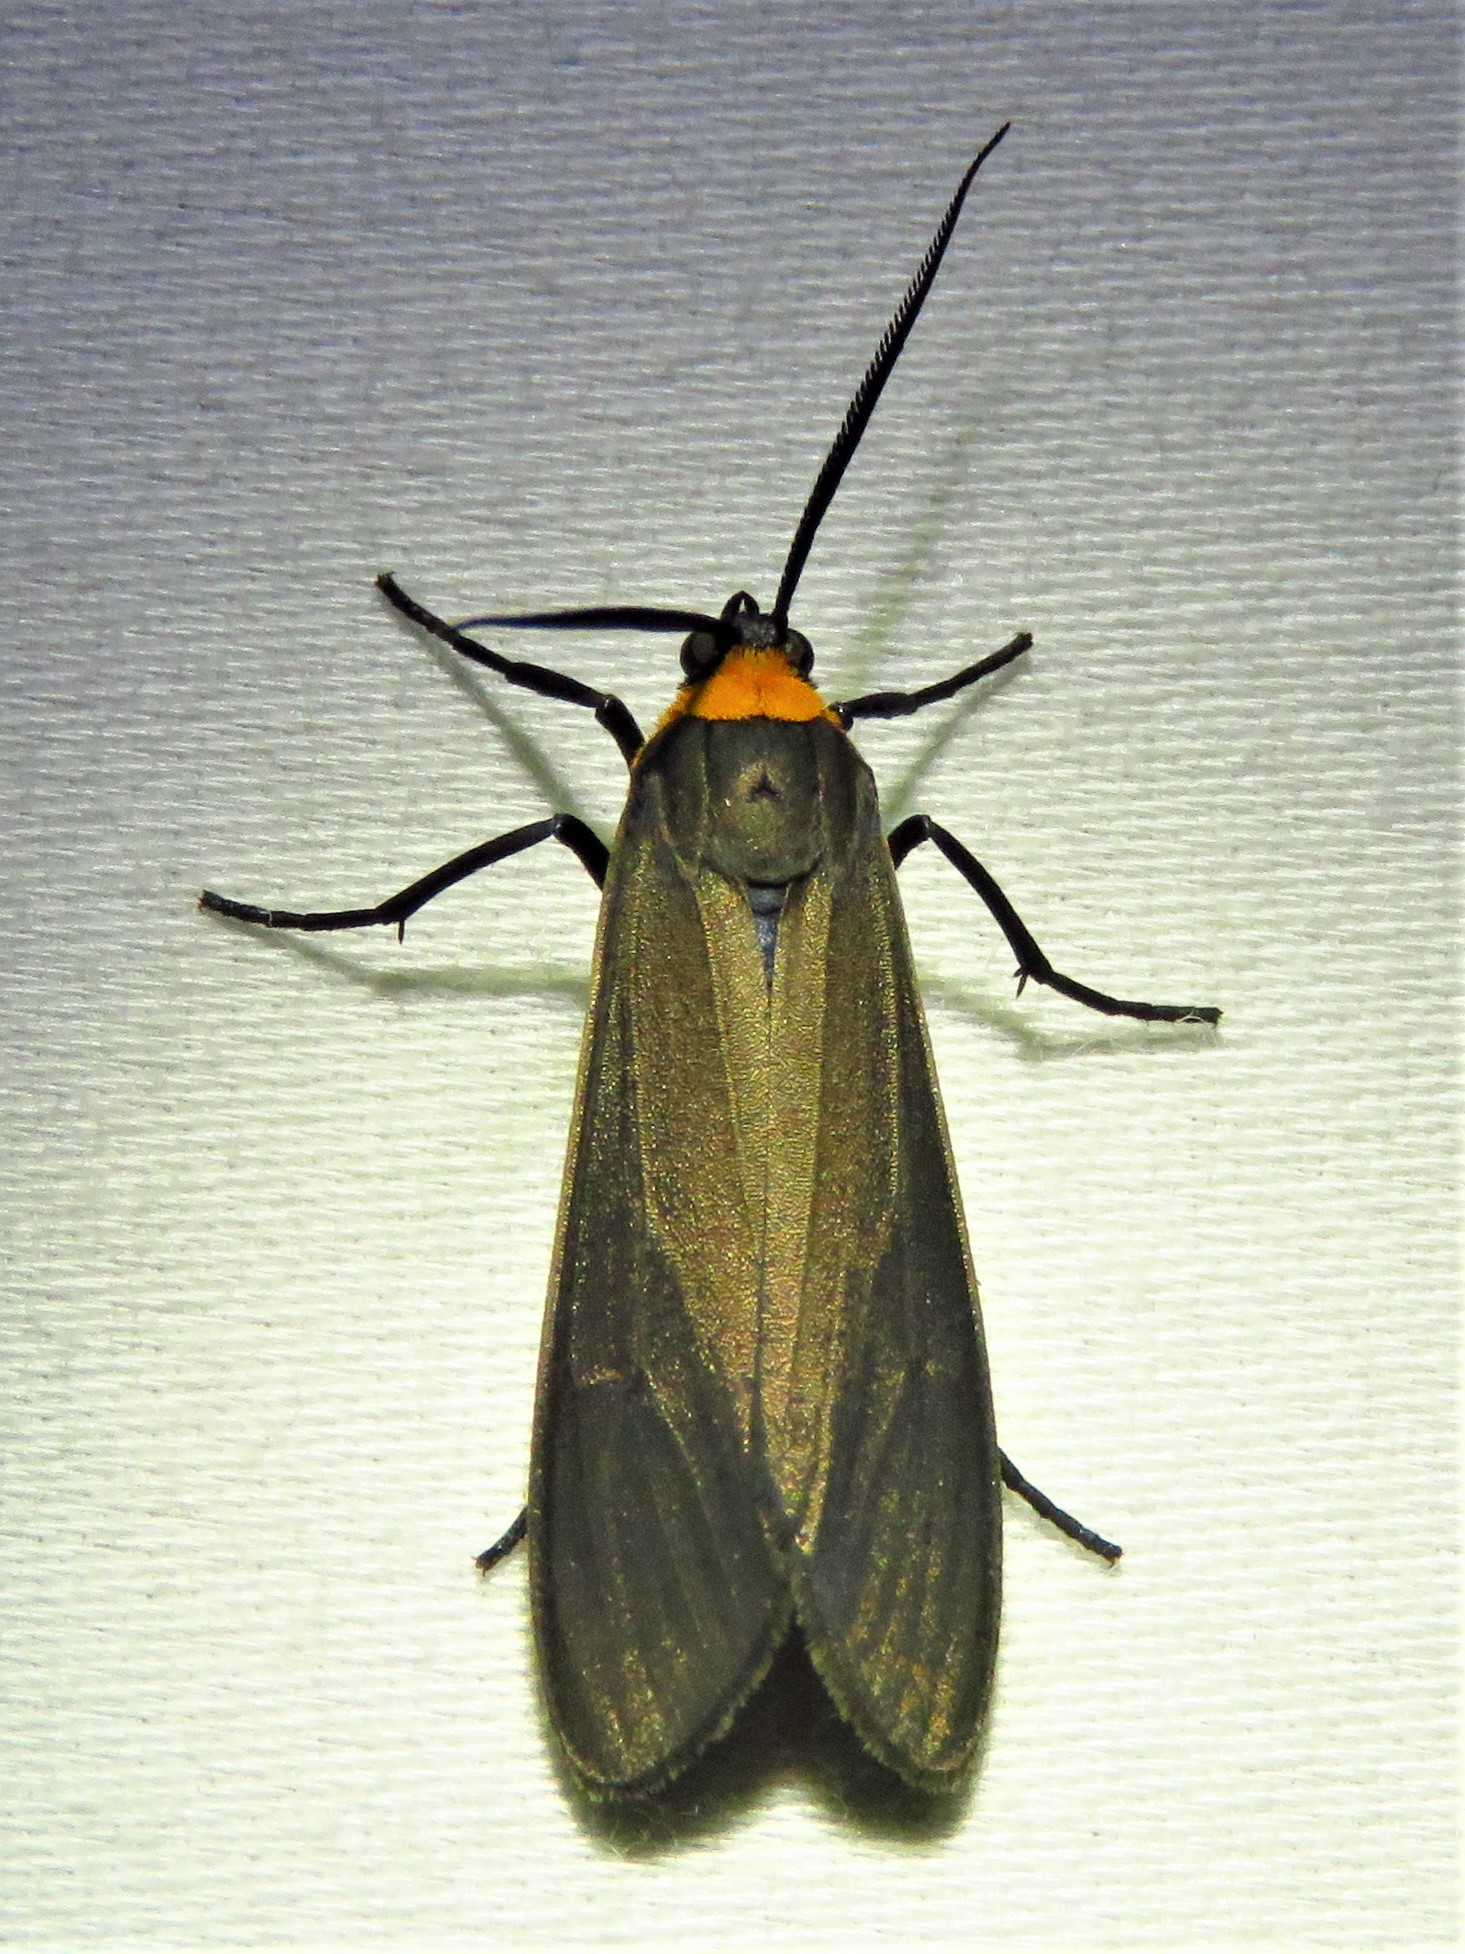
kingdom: Animalia
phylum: Arthropoda
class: Insecta
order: Lepidoptera
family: Erebidae
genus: Cisseps
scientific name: Cisseps fulvicollis
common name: Yellow-collared scape moth
